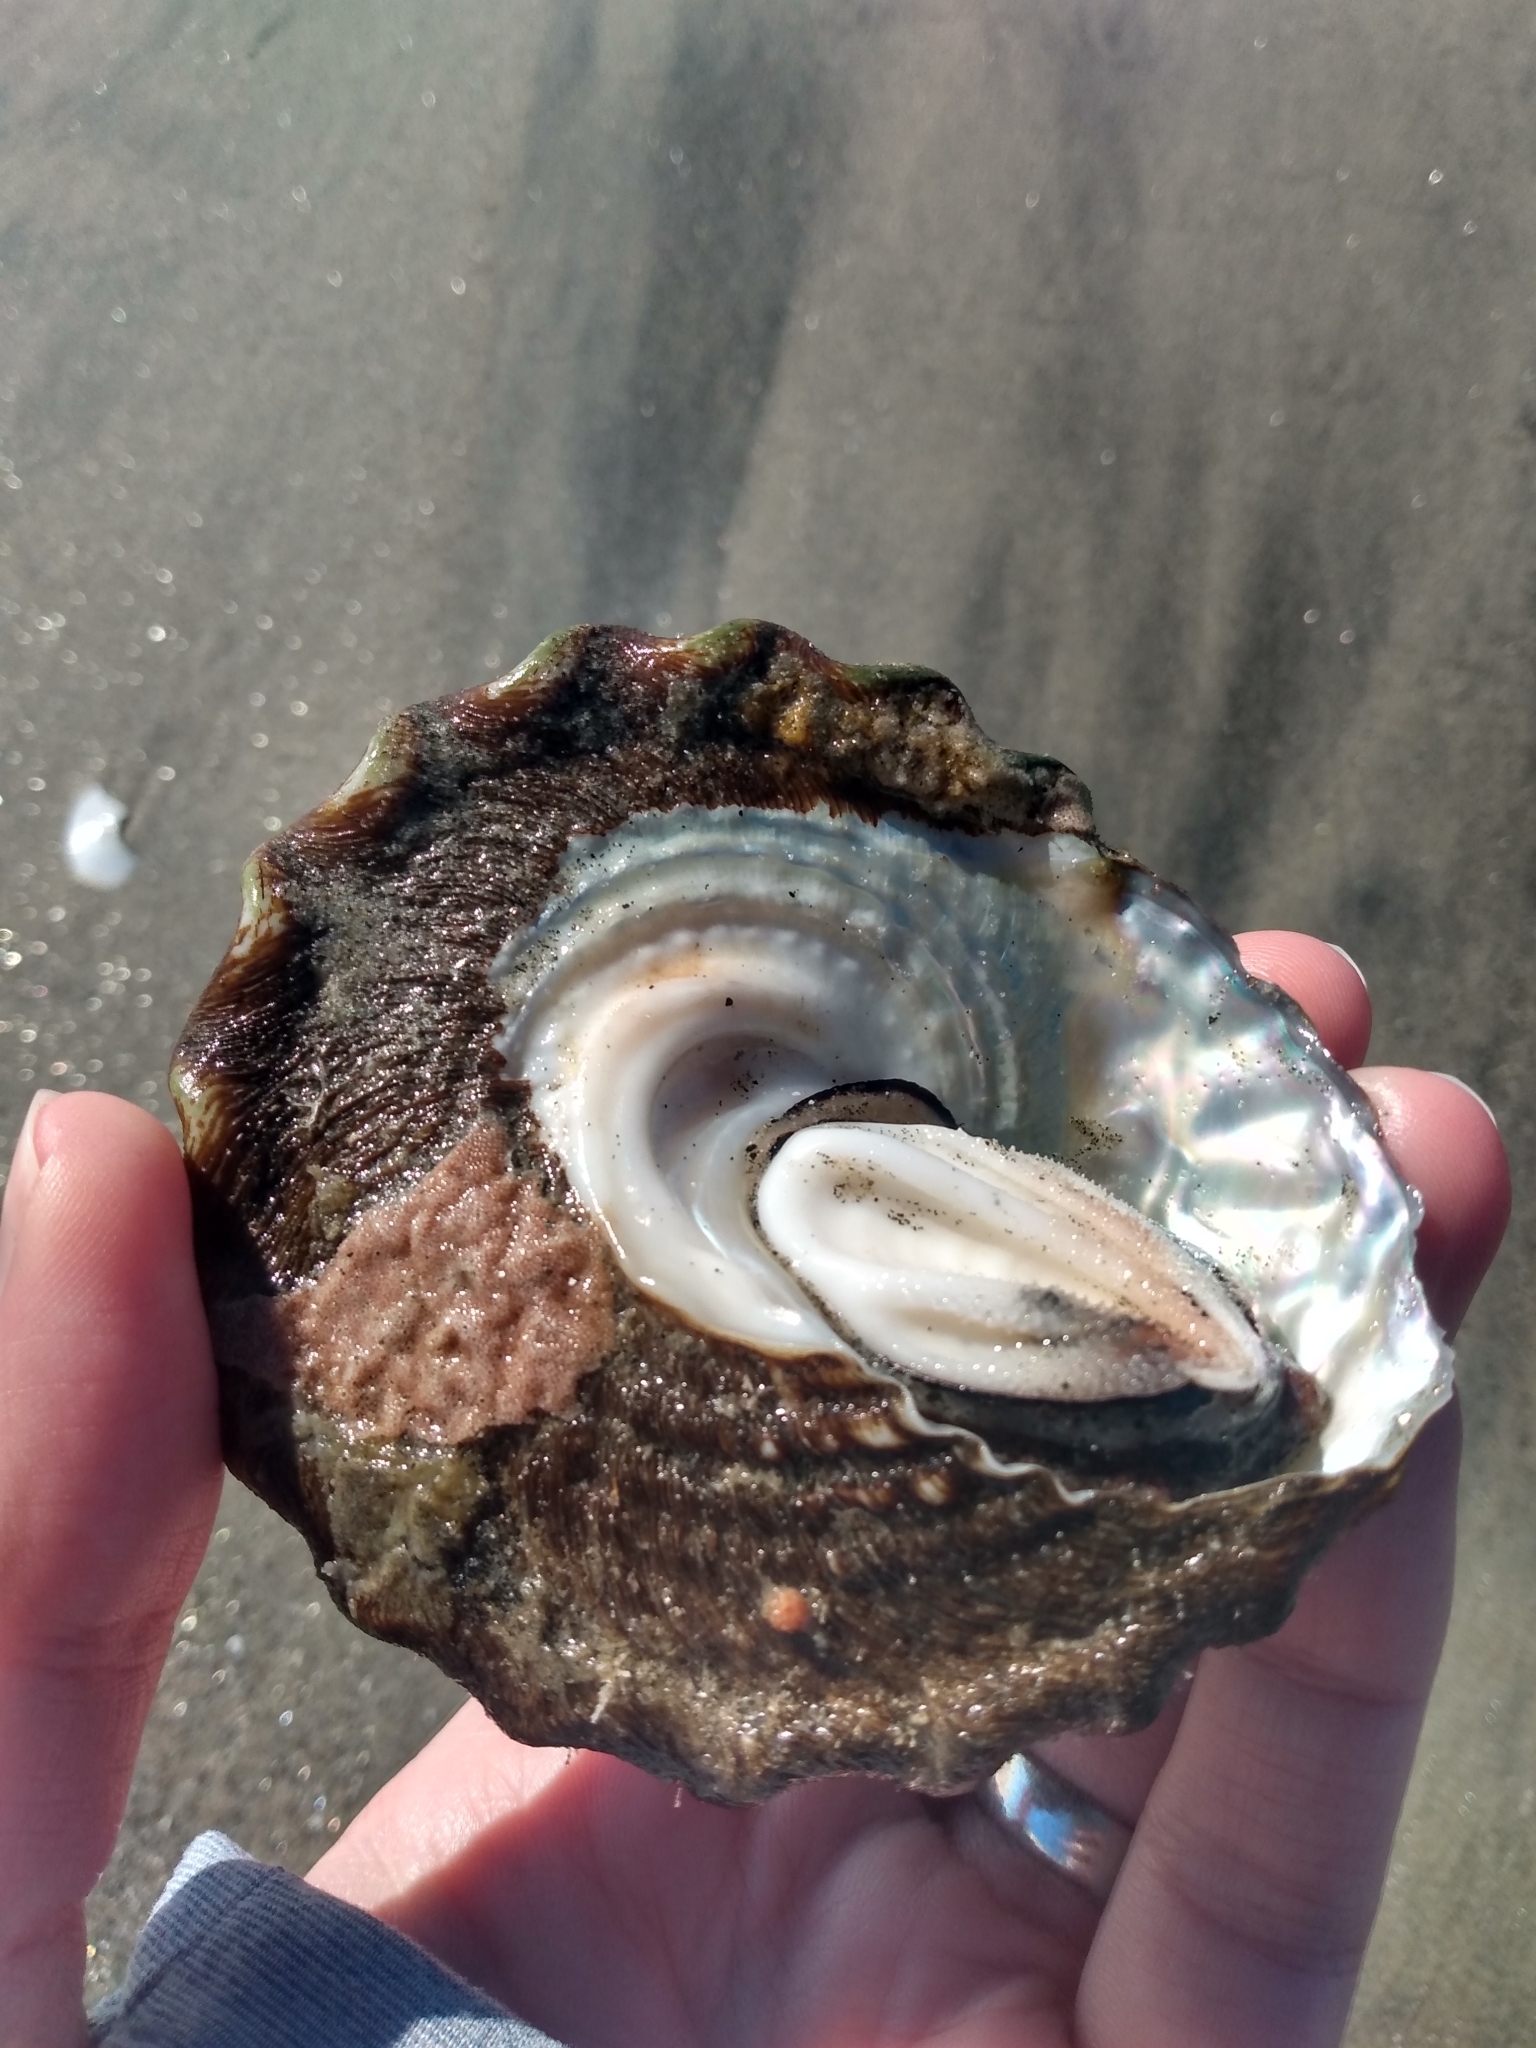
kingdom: Animalia
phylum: Mollusca
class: Gastropoda
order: Trochida
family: Turbinidae
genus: Megastraea
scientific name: Megastraea undosa
